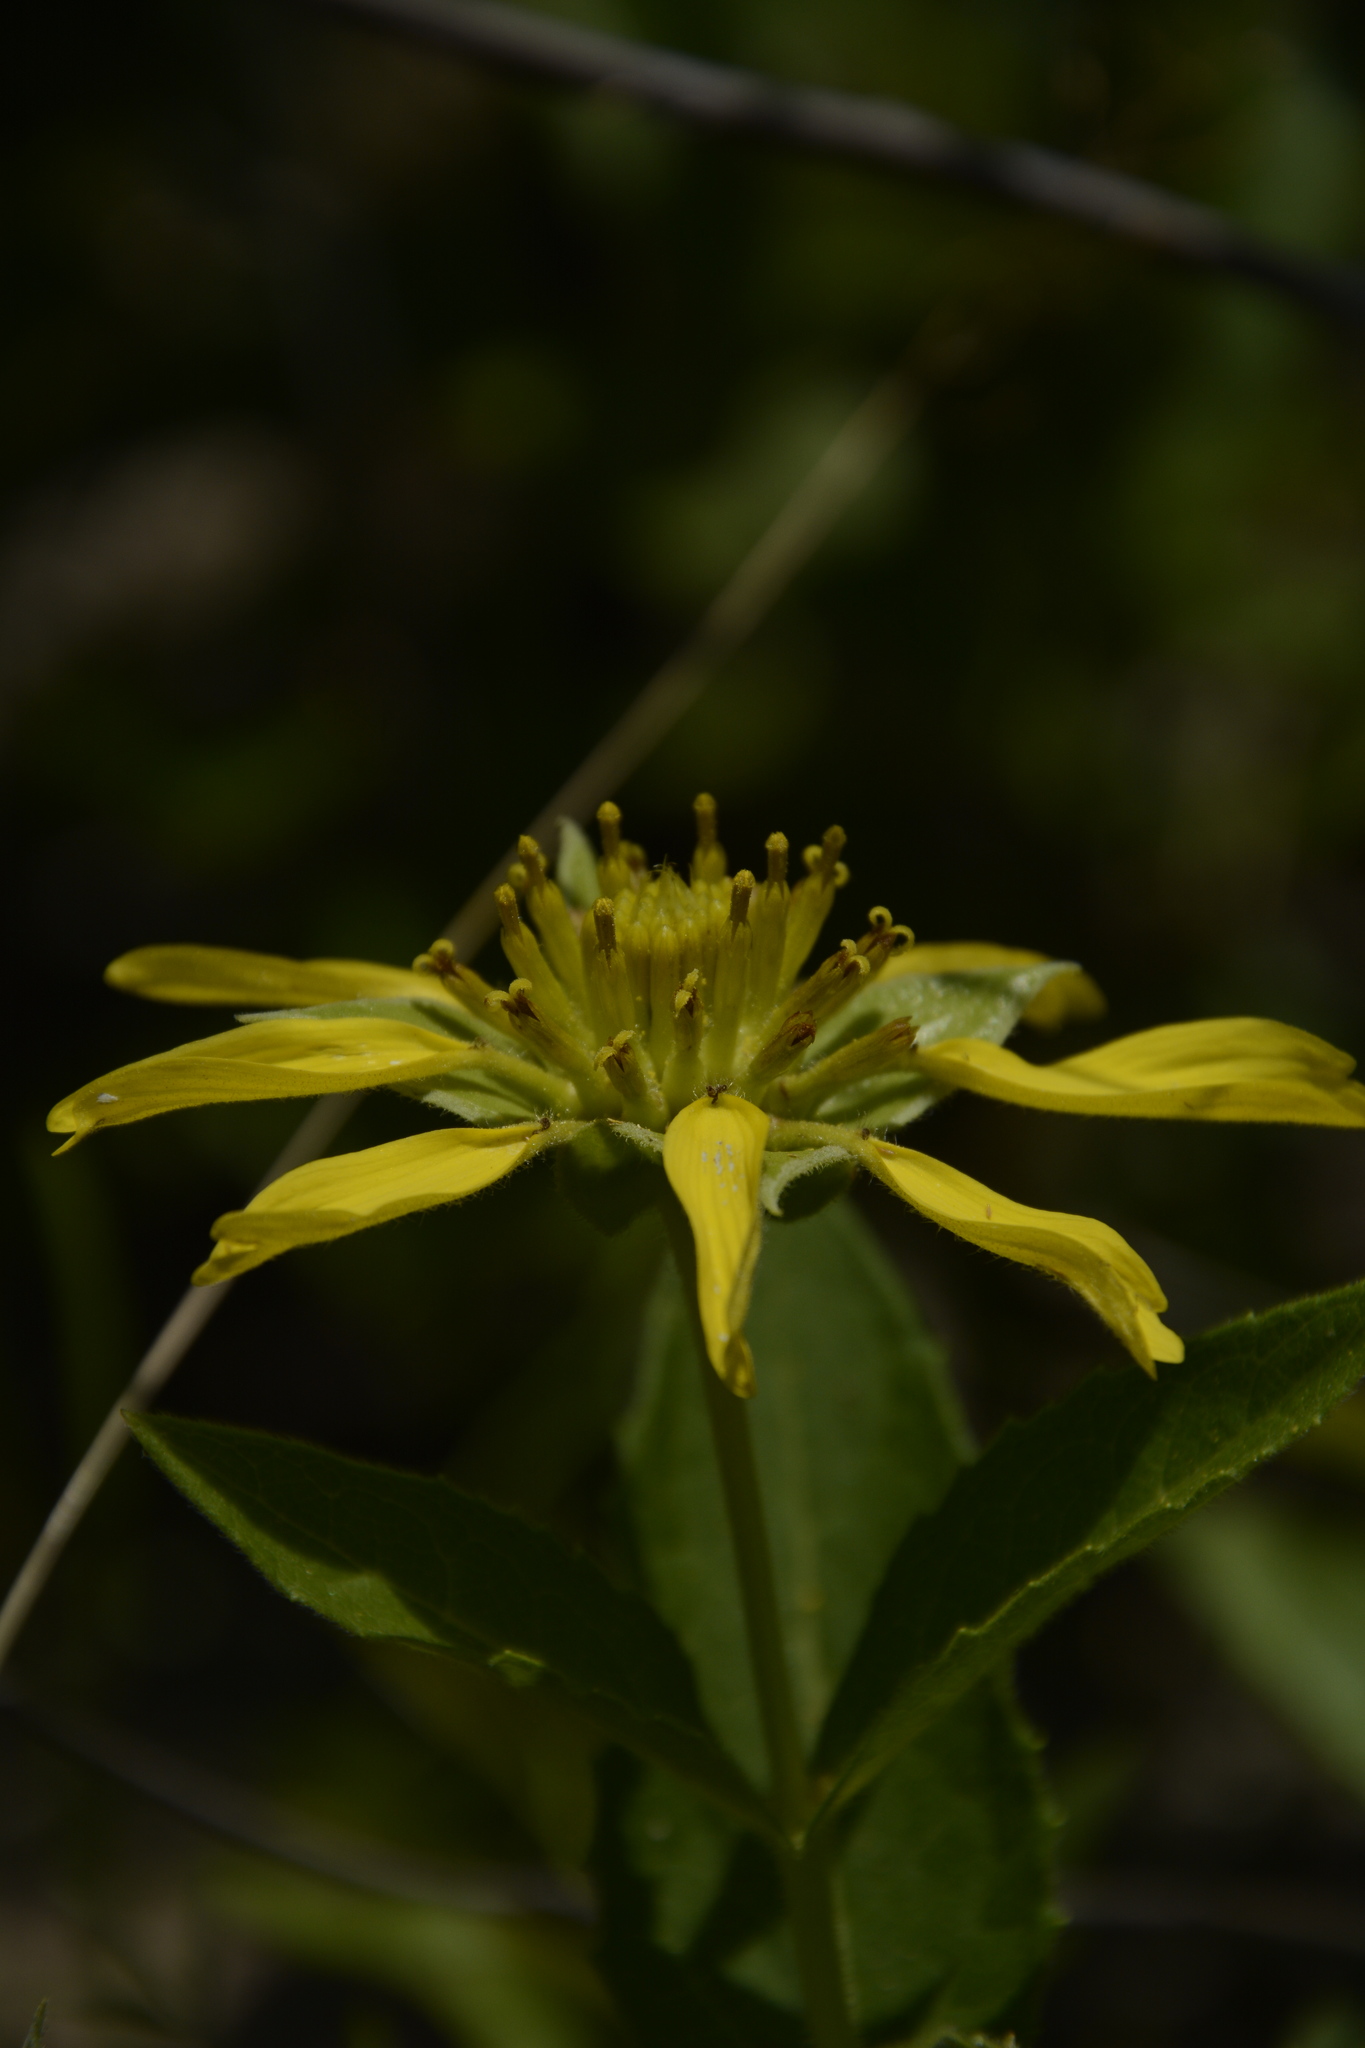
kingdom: Plantae
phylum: Tracheophyta
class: Magnoliopsida
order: Asterales
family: Asteraceae
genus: Tetragonotheca
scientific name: Tetragonotheca helianthoides
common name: Pineland-ginseng
